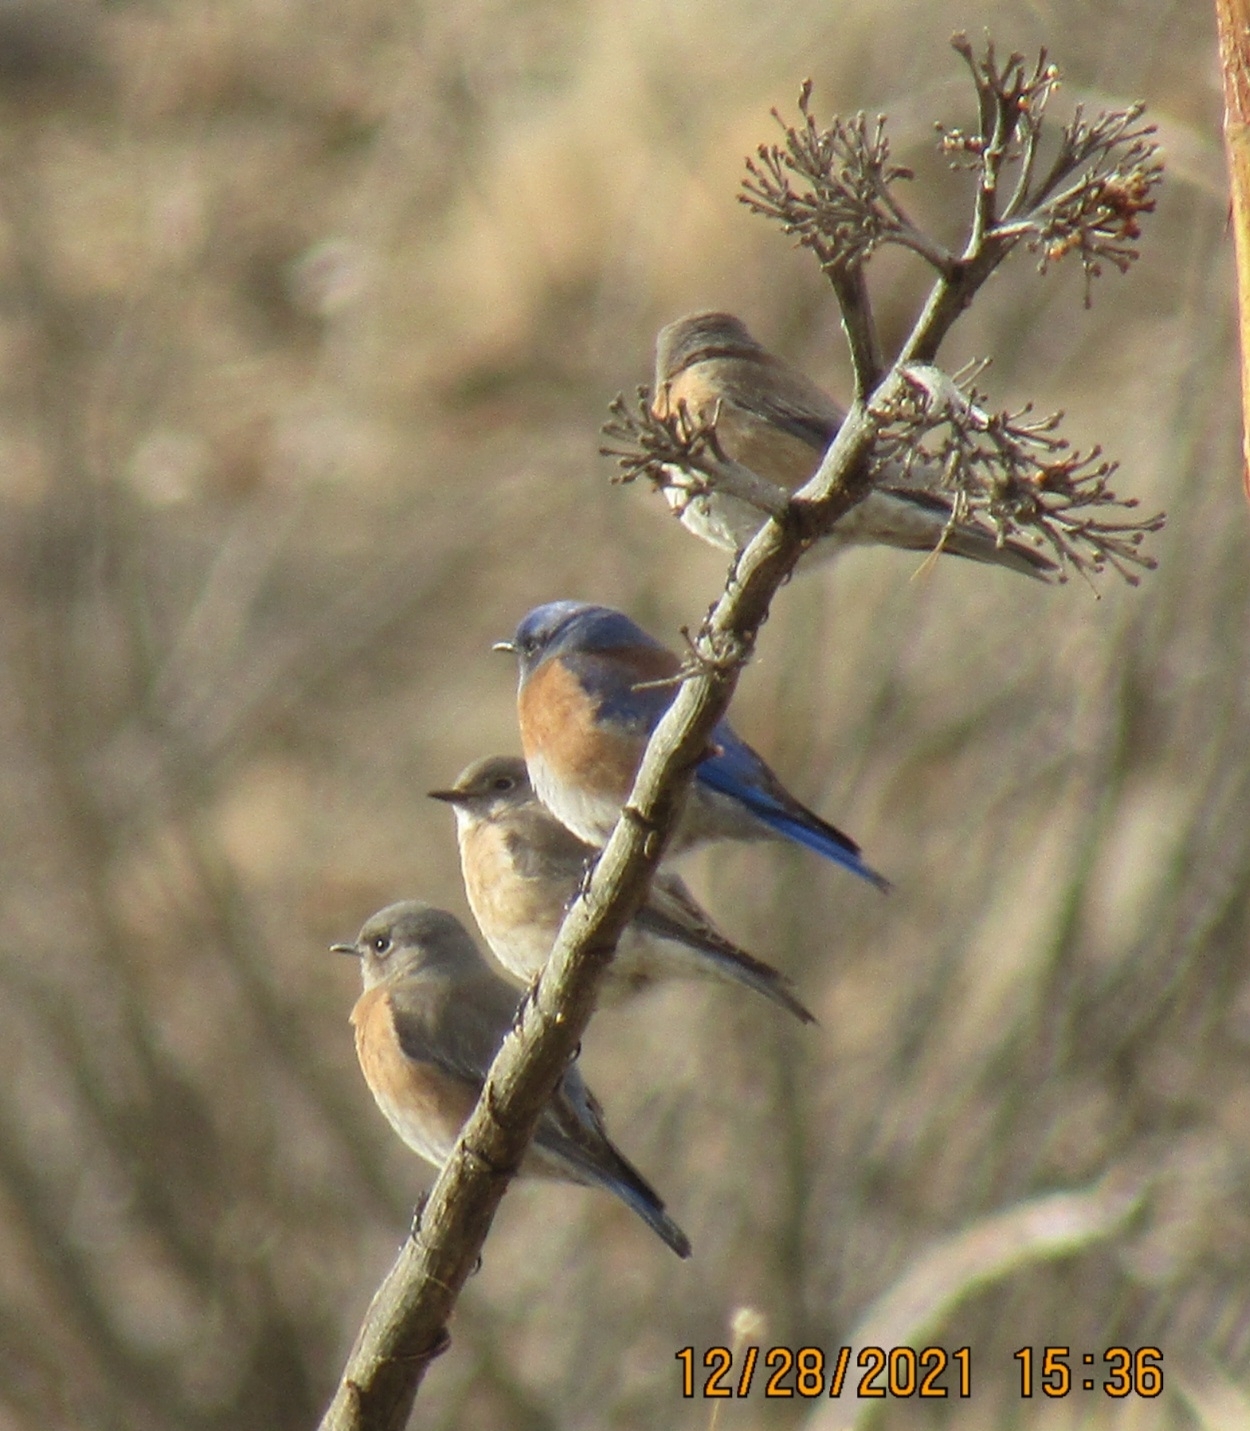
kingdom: Animalia
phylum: Chordata
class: Aves
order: Passeriformes
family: Turdidae
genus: Sialia
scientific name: Sialia mexicana
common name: Western bluebird
